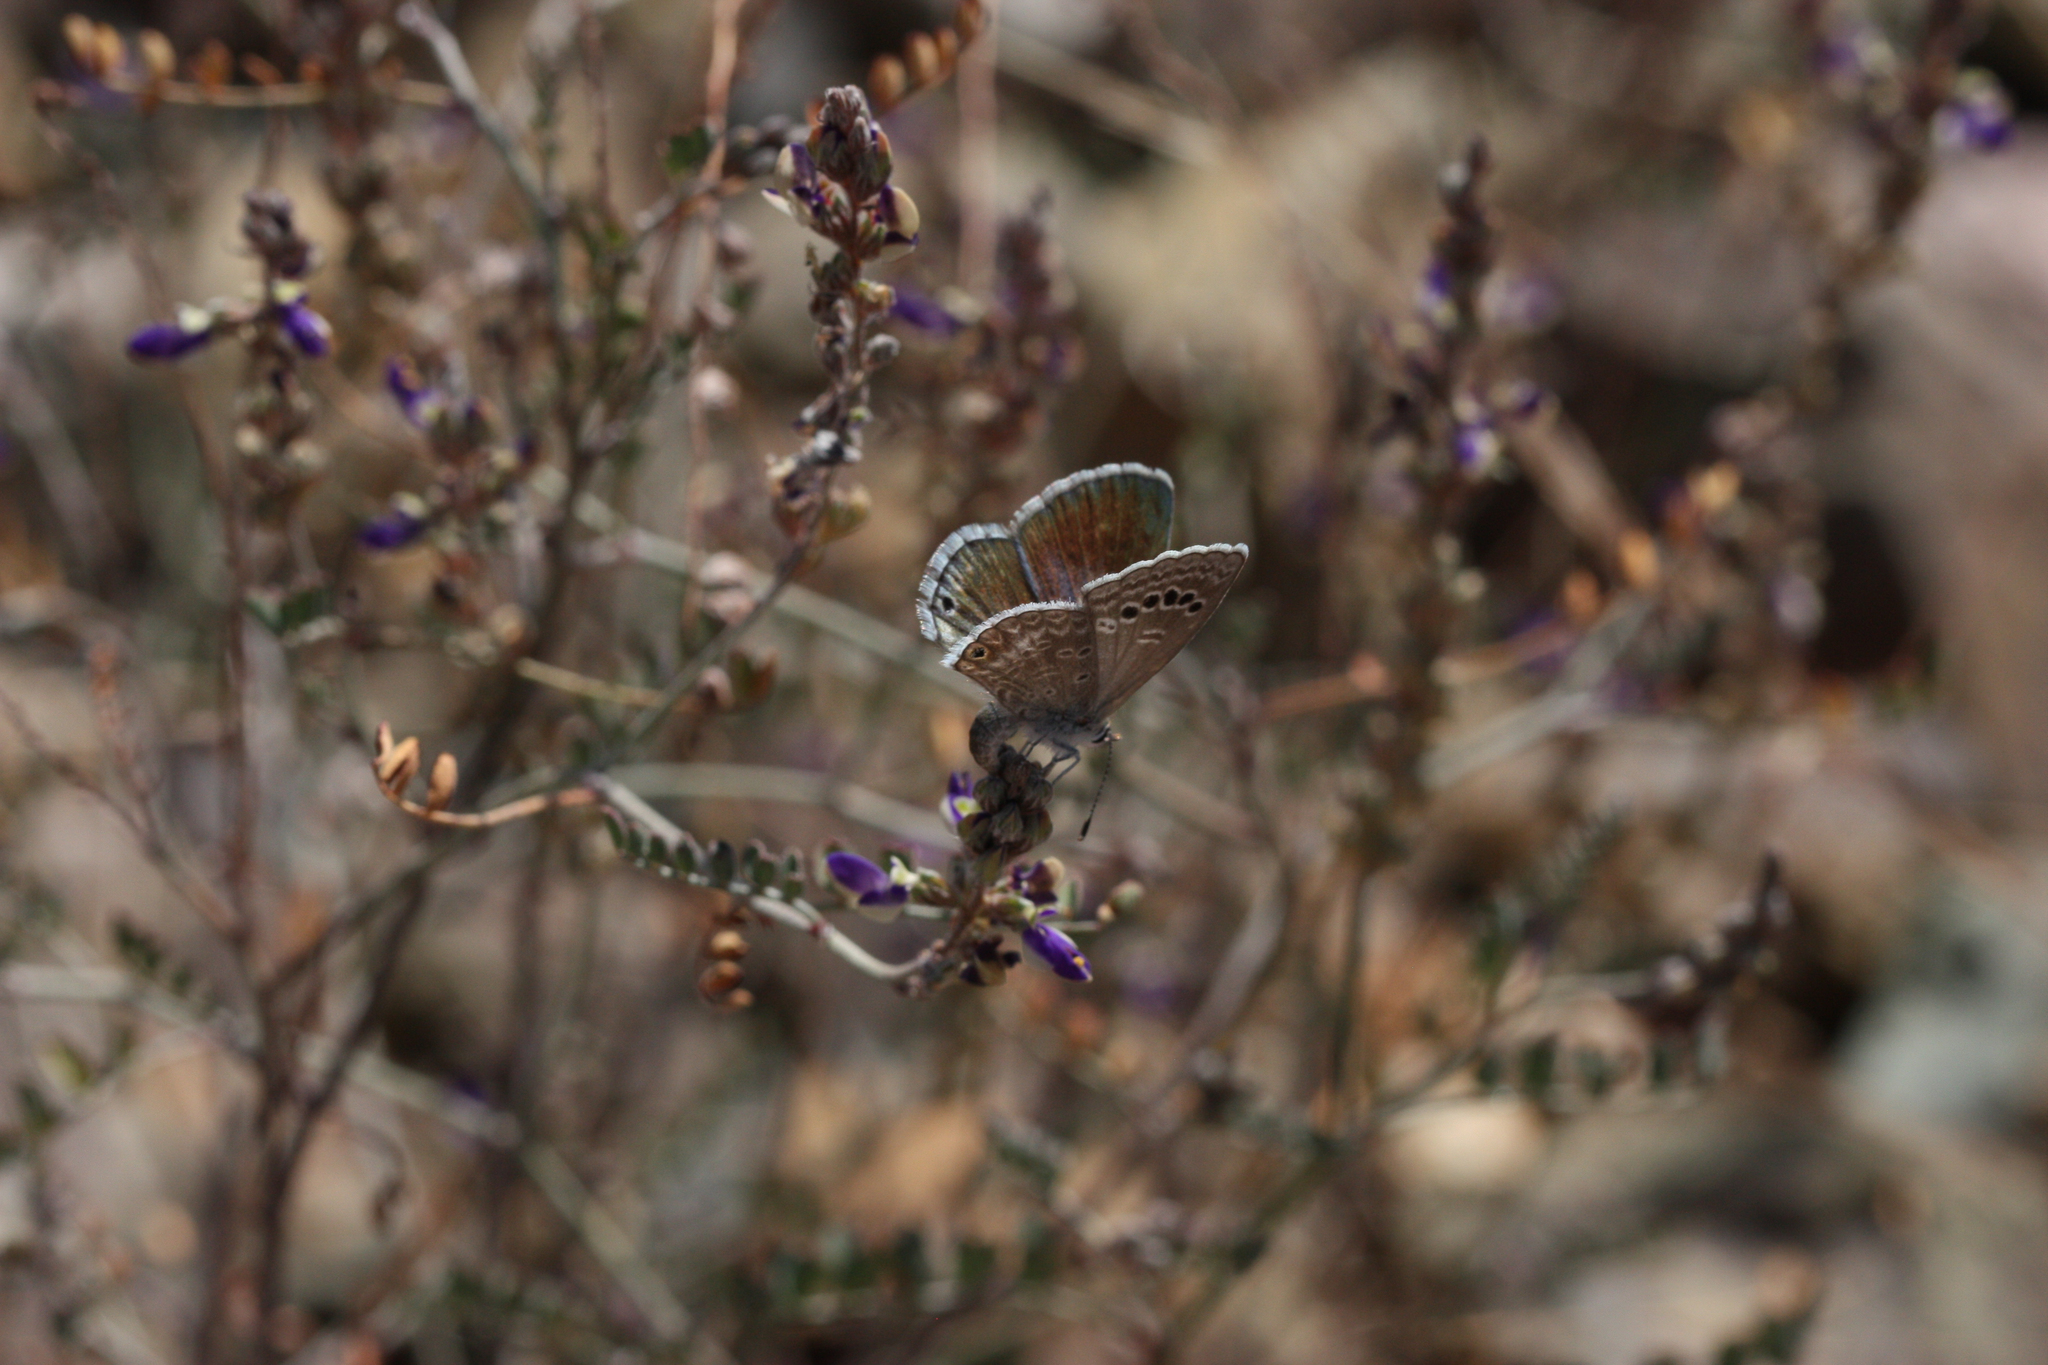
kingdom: Animalia
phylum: Arthropoda
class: Insecta
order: Lepidoptera
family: Lycaenidae
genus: Echinargus
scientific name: Echinargus isola
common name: Reakirt's blue
